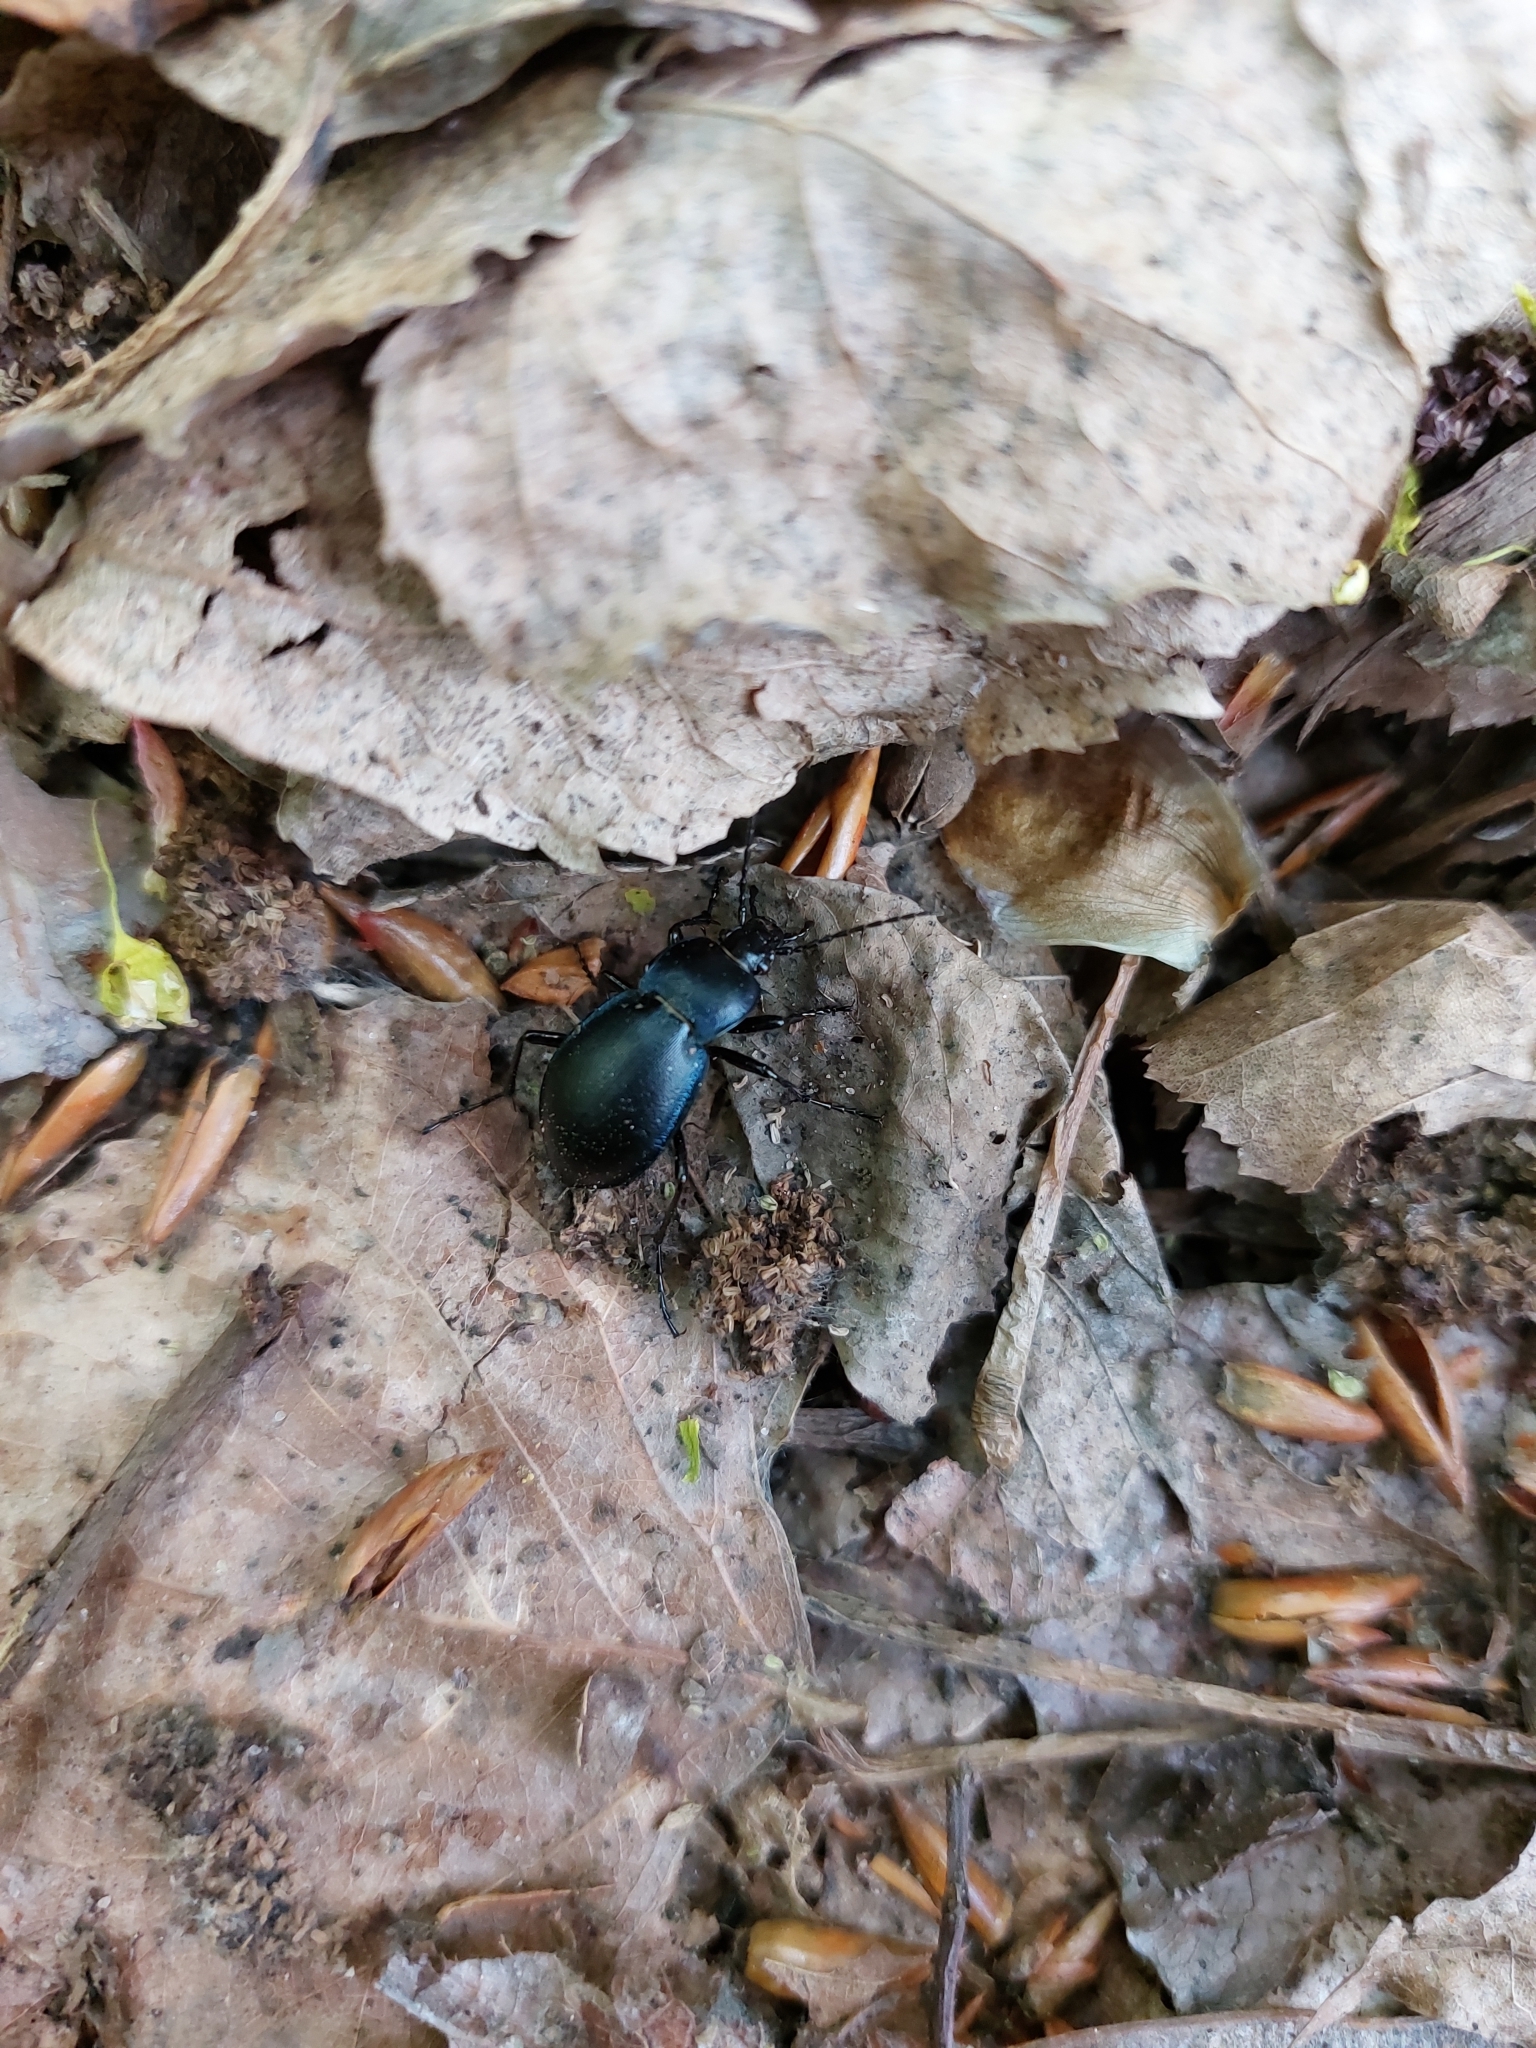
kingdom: Animalia
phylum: Arthropoda
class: Insecta
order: Coleoptera
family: Carabidae
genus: Carabus
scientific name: Carabus convexus
